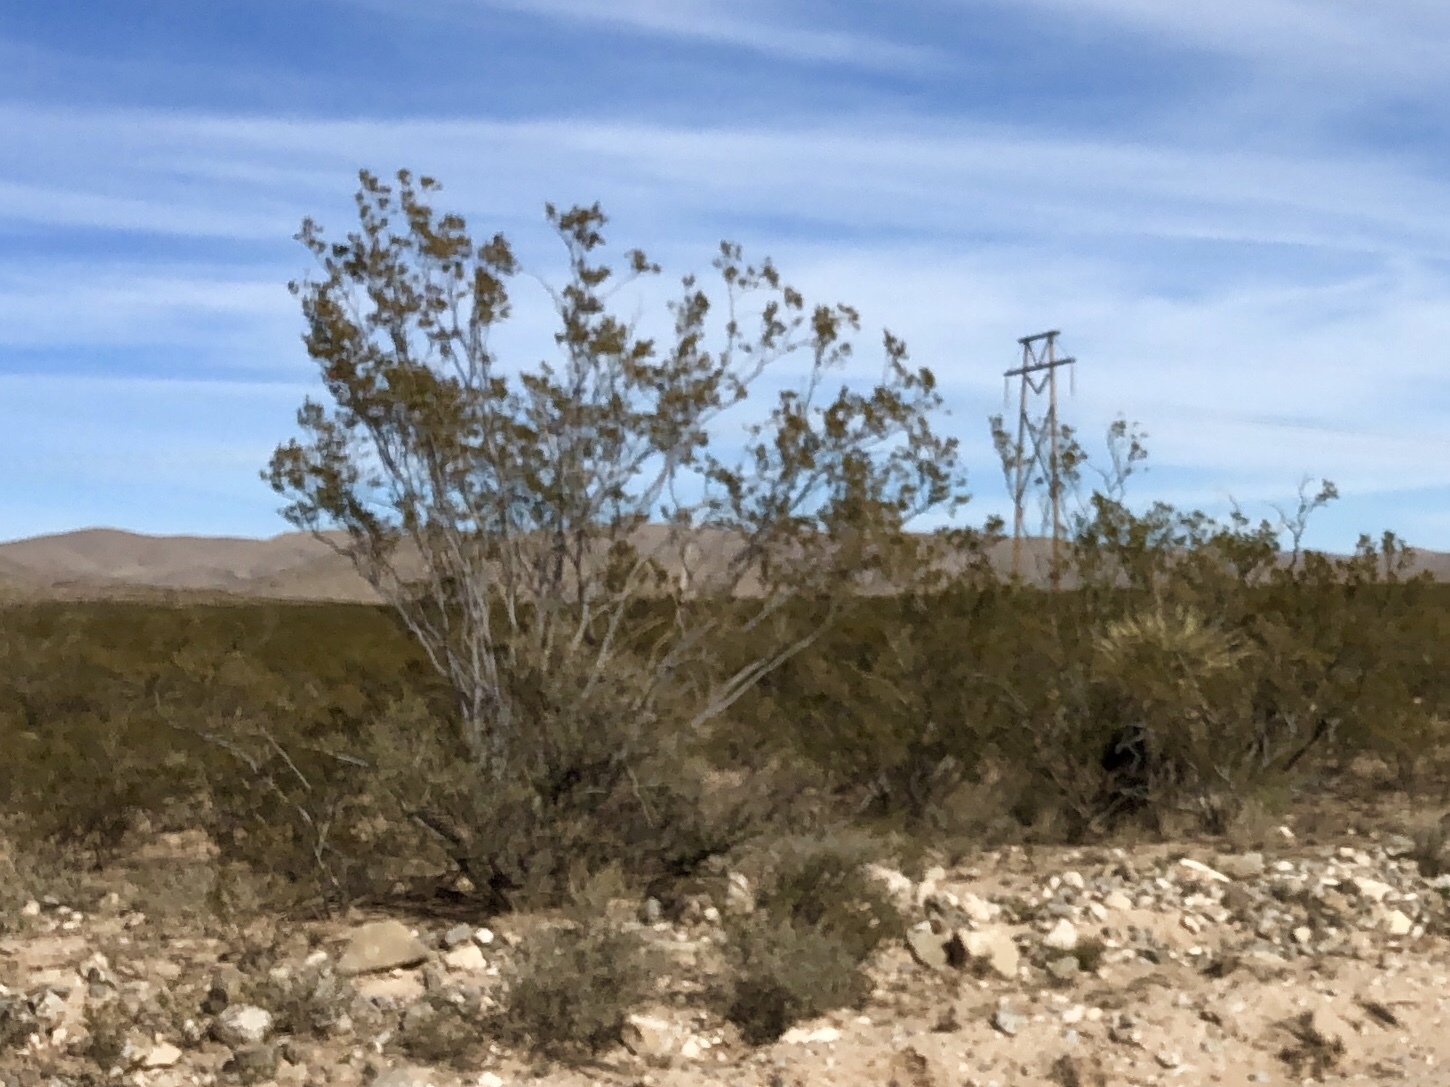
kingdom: Plantae
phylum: Tracheophyta
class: Magnoliopsida
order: Zygophyllales
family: Zygophyllaceae
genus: Larrea
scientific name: Larrea tridentata
